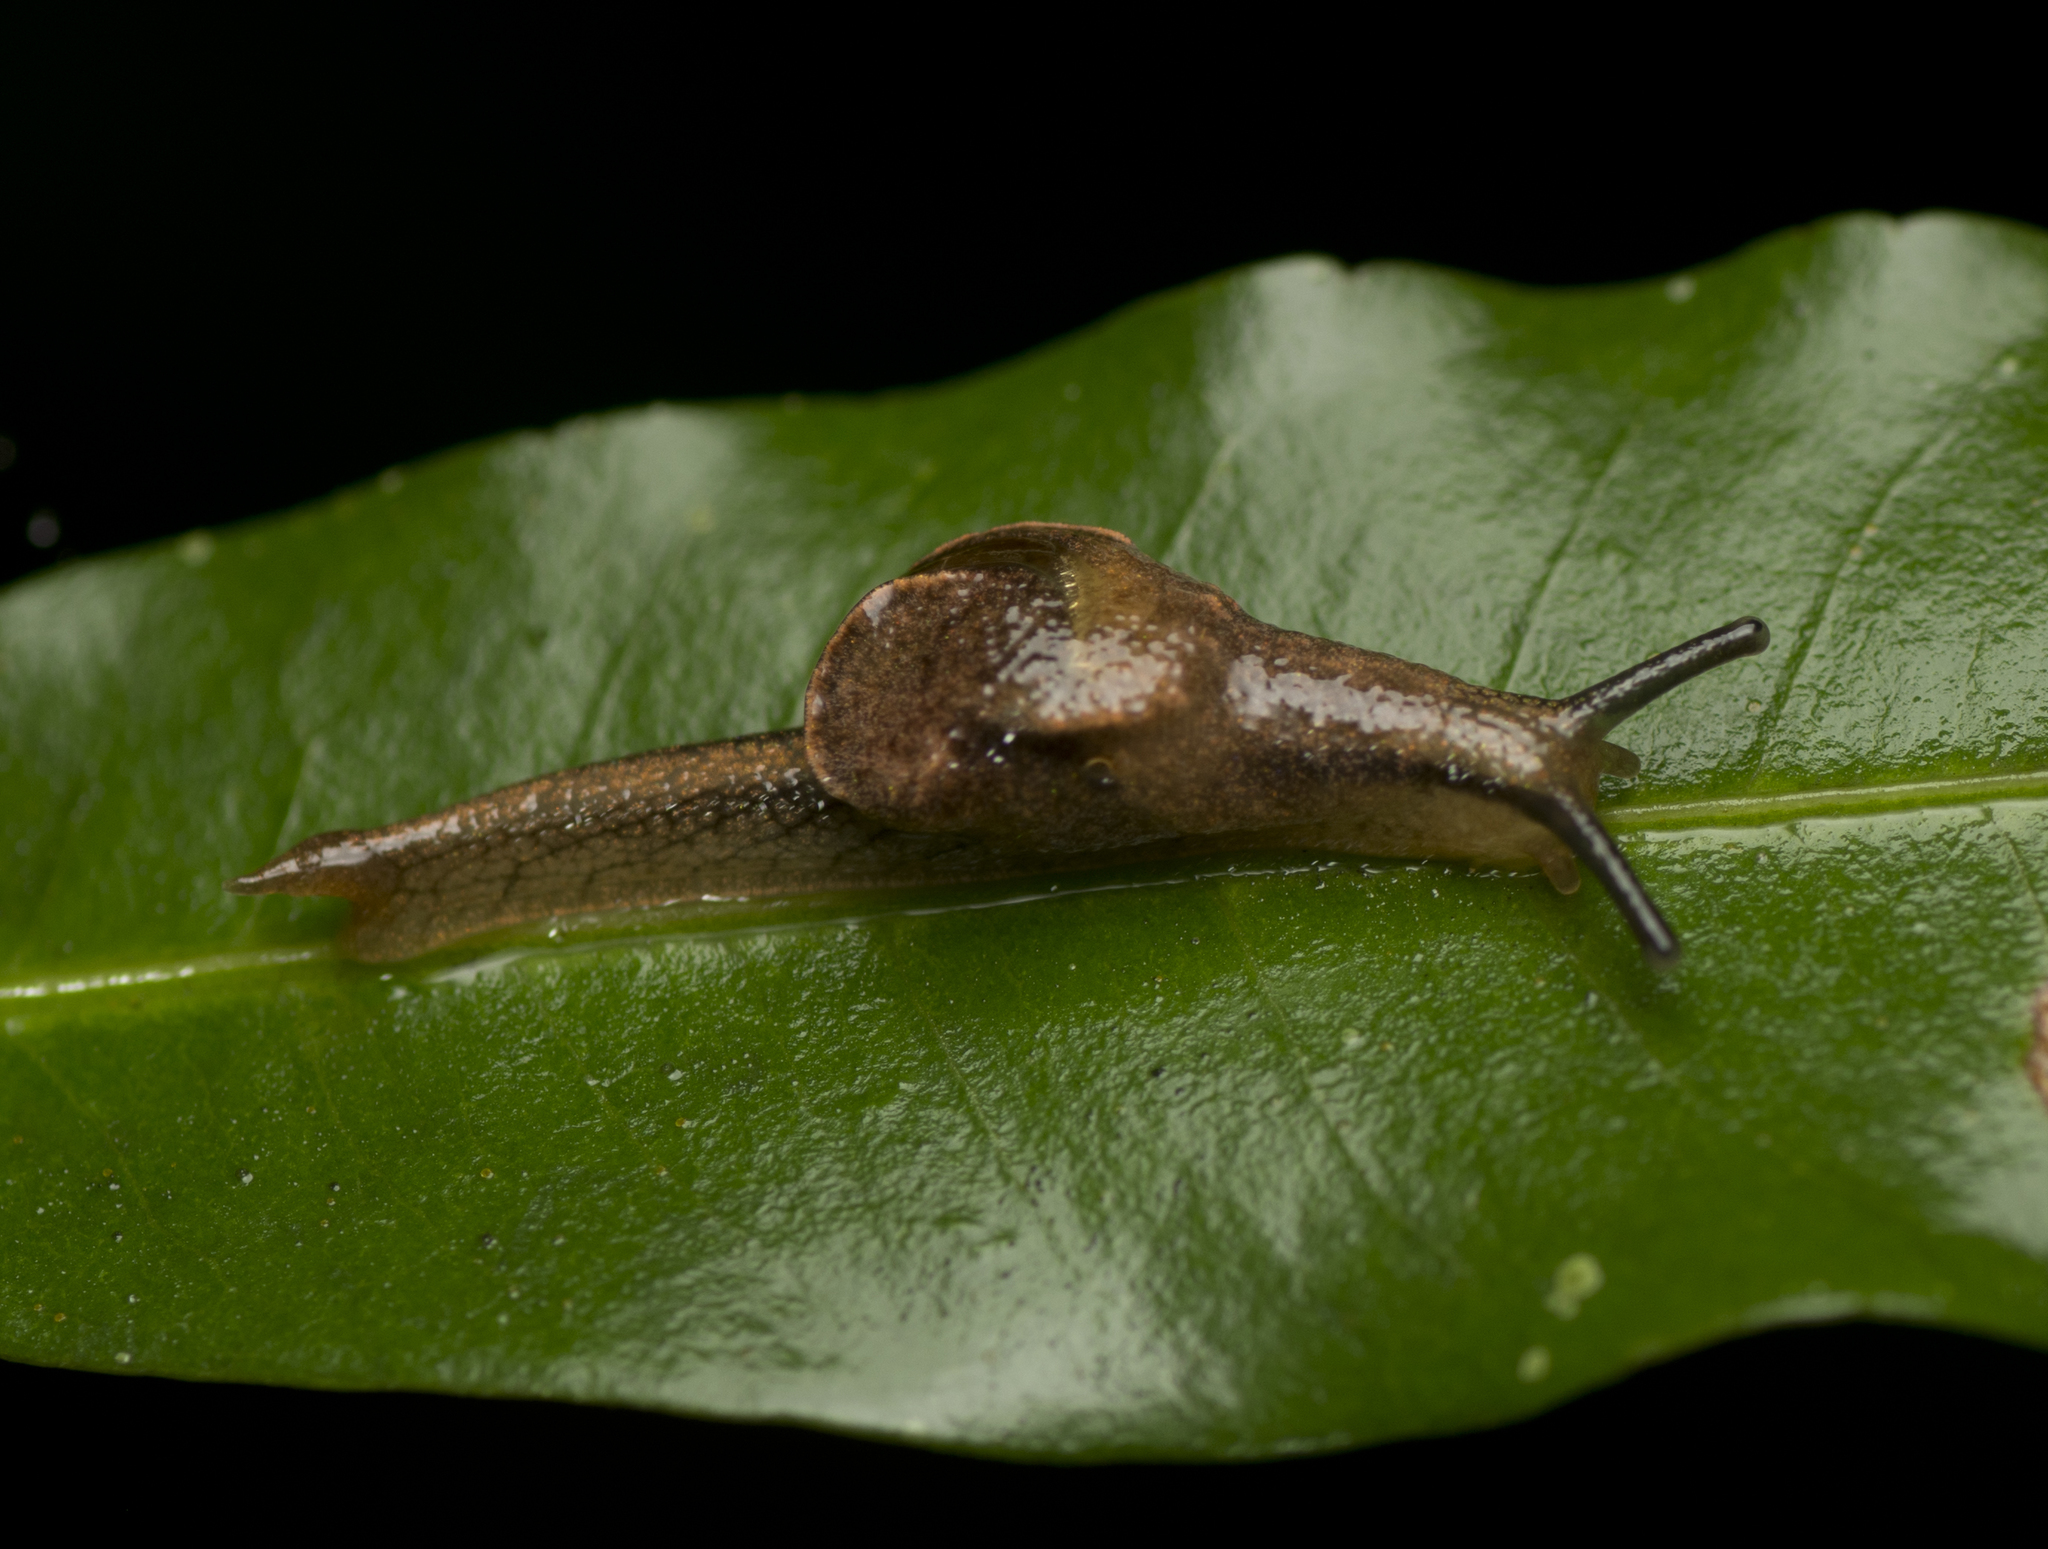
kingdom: Animalia
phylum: Mollusca
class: Gastropoda
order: Stylommatophora
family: Helicarionidae
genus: Ubiquitarion
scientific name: Ubiquitarion iridis
